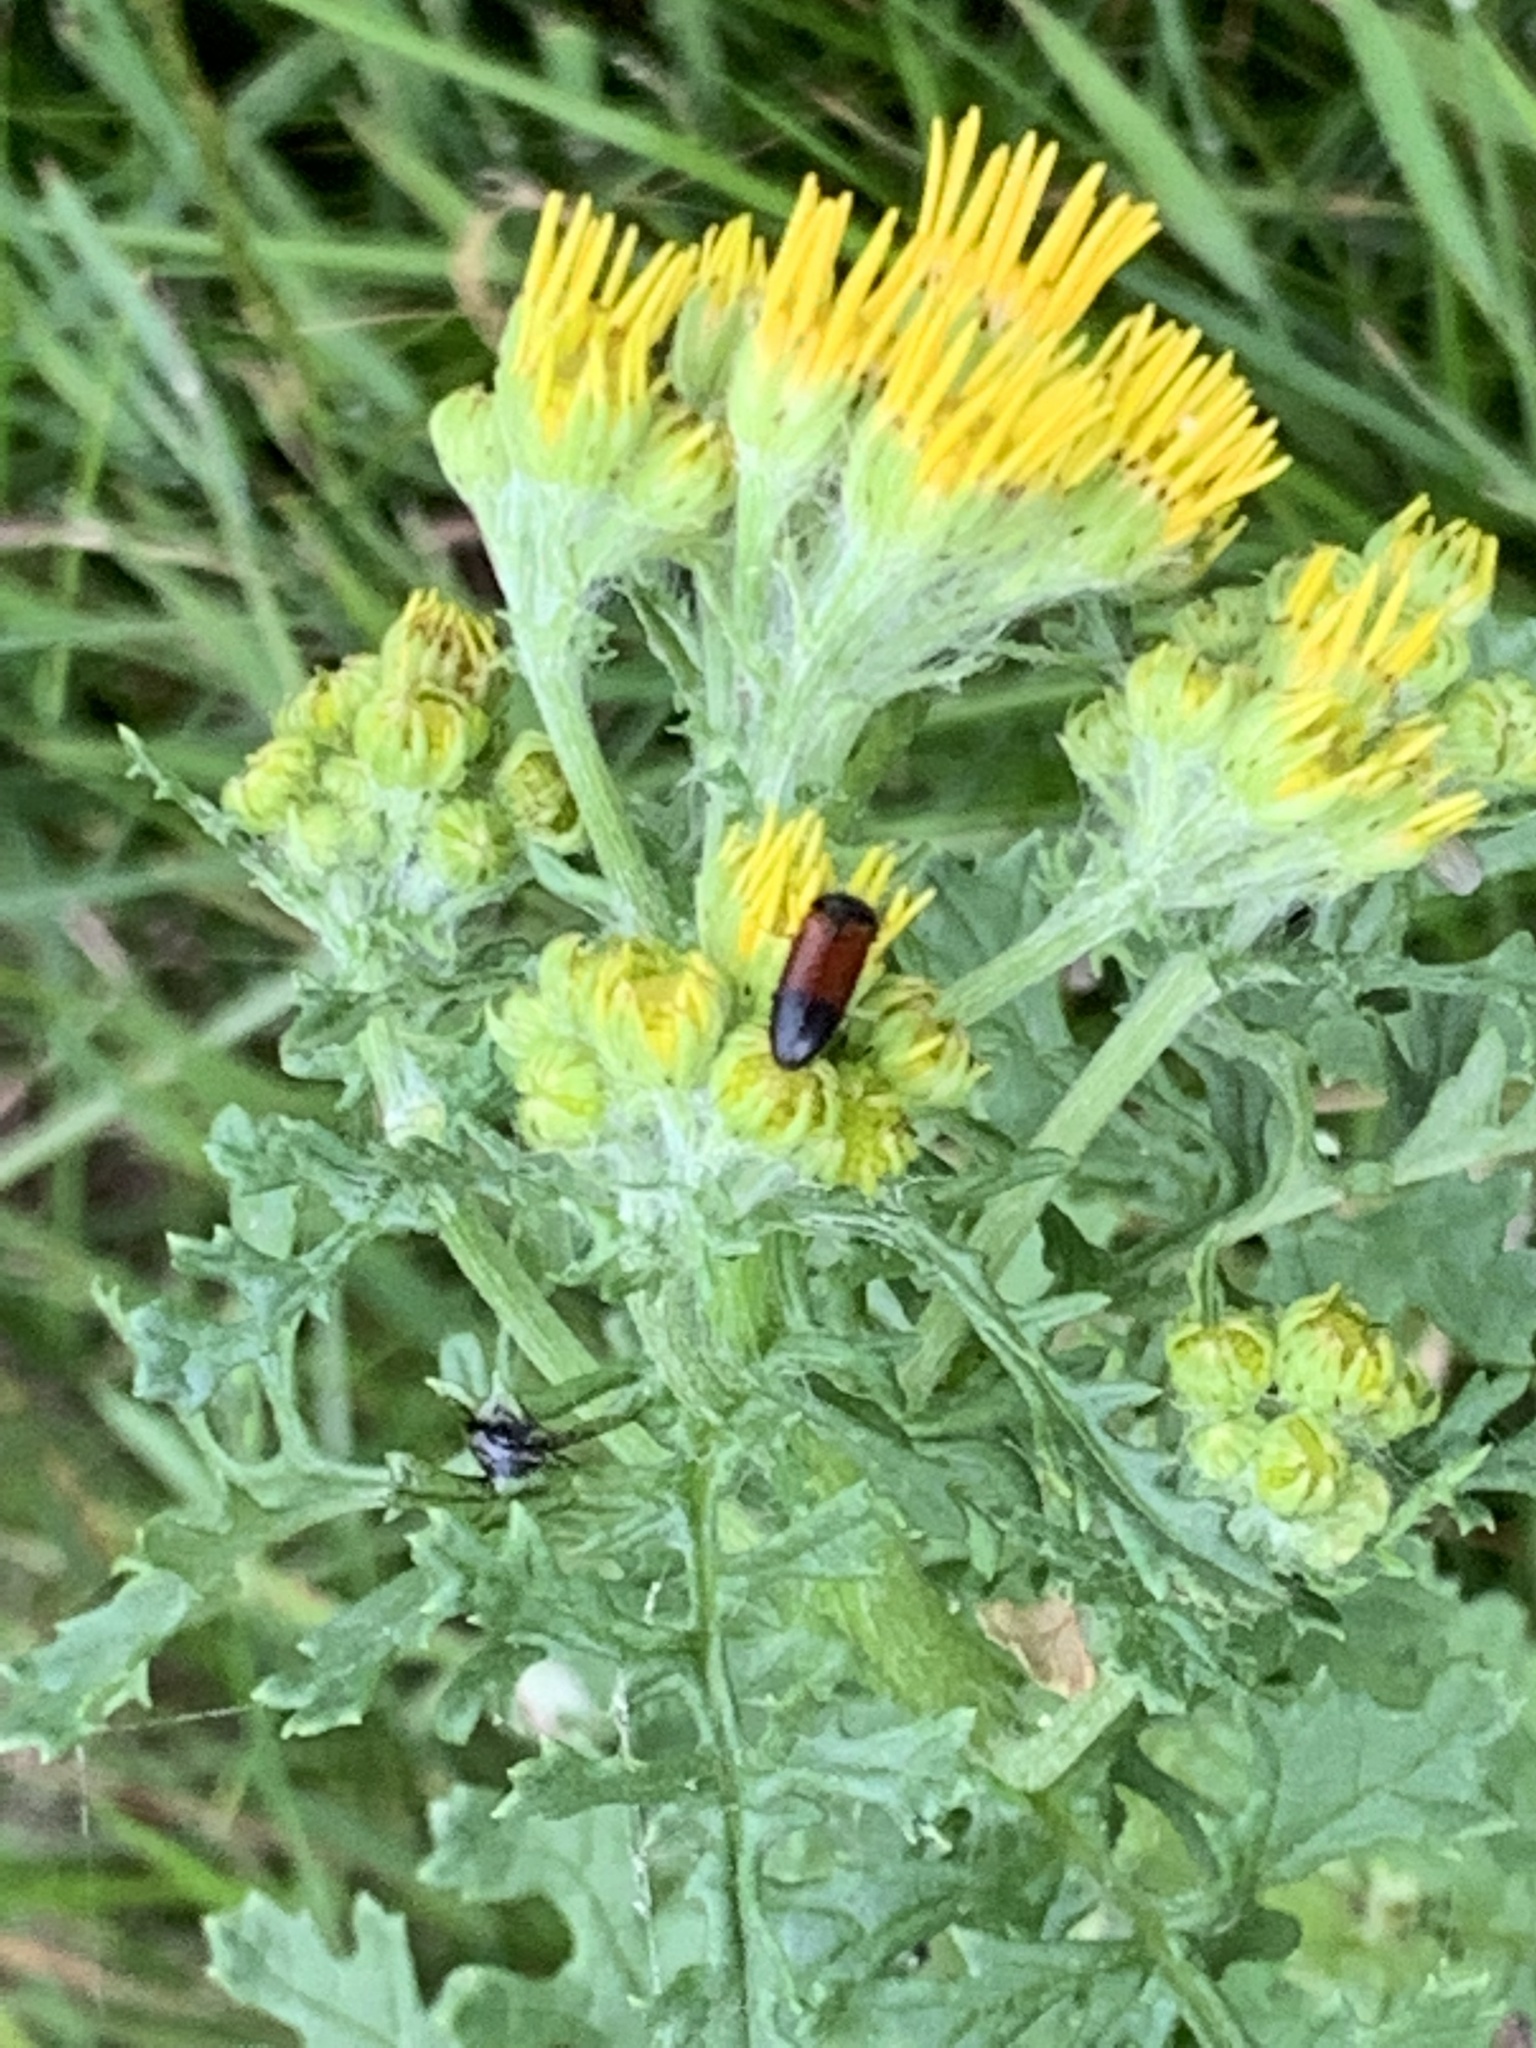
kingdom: Animalia
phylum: Arthropoda
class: Insecta
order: Coleoptera
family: Elateridae
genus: Ampedus
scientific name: Ampedus balteatus
